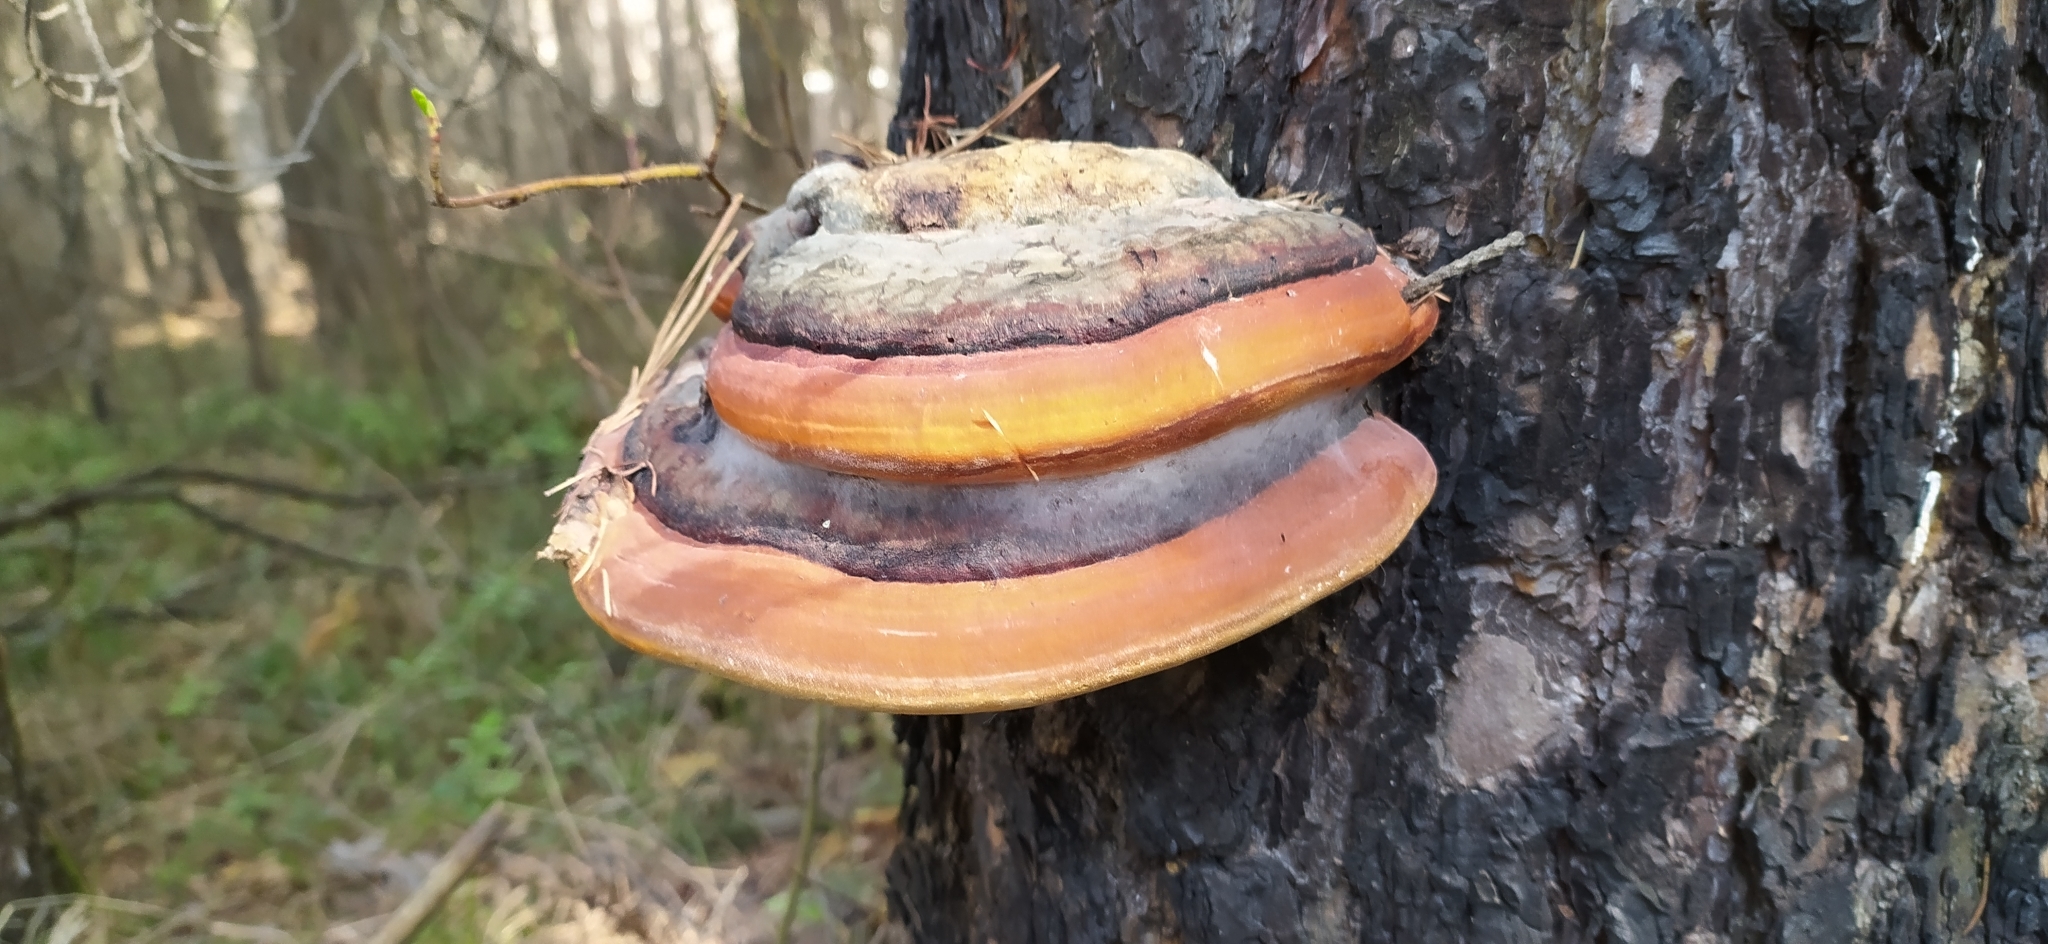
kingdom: Fungi
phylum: Basidiomycota
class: Agaricomycetes
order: Polyporales
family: Fomitopsidaceae
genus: Fomitopsis
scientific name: Fomitopsis pinicola
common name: Red-belted bracket
